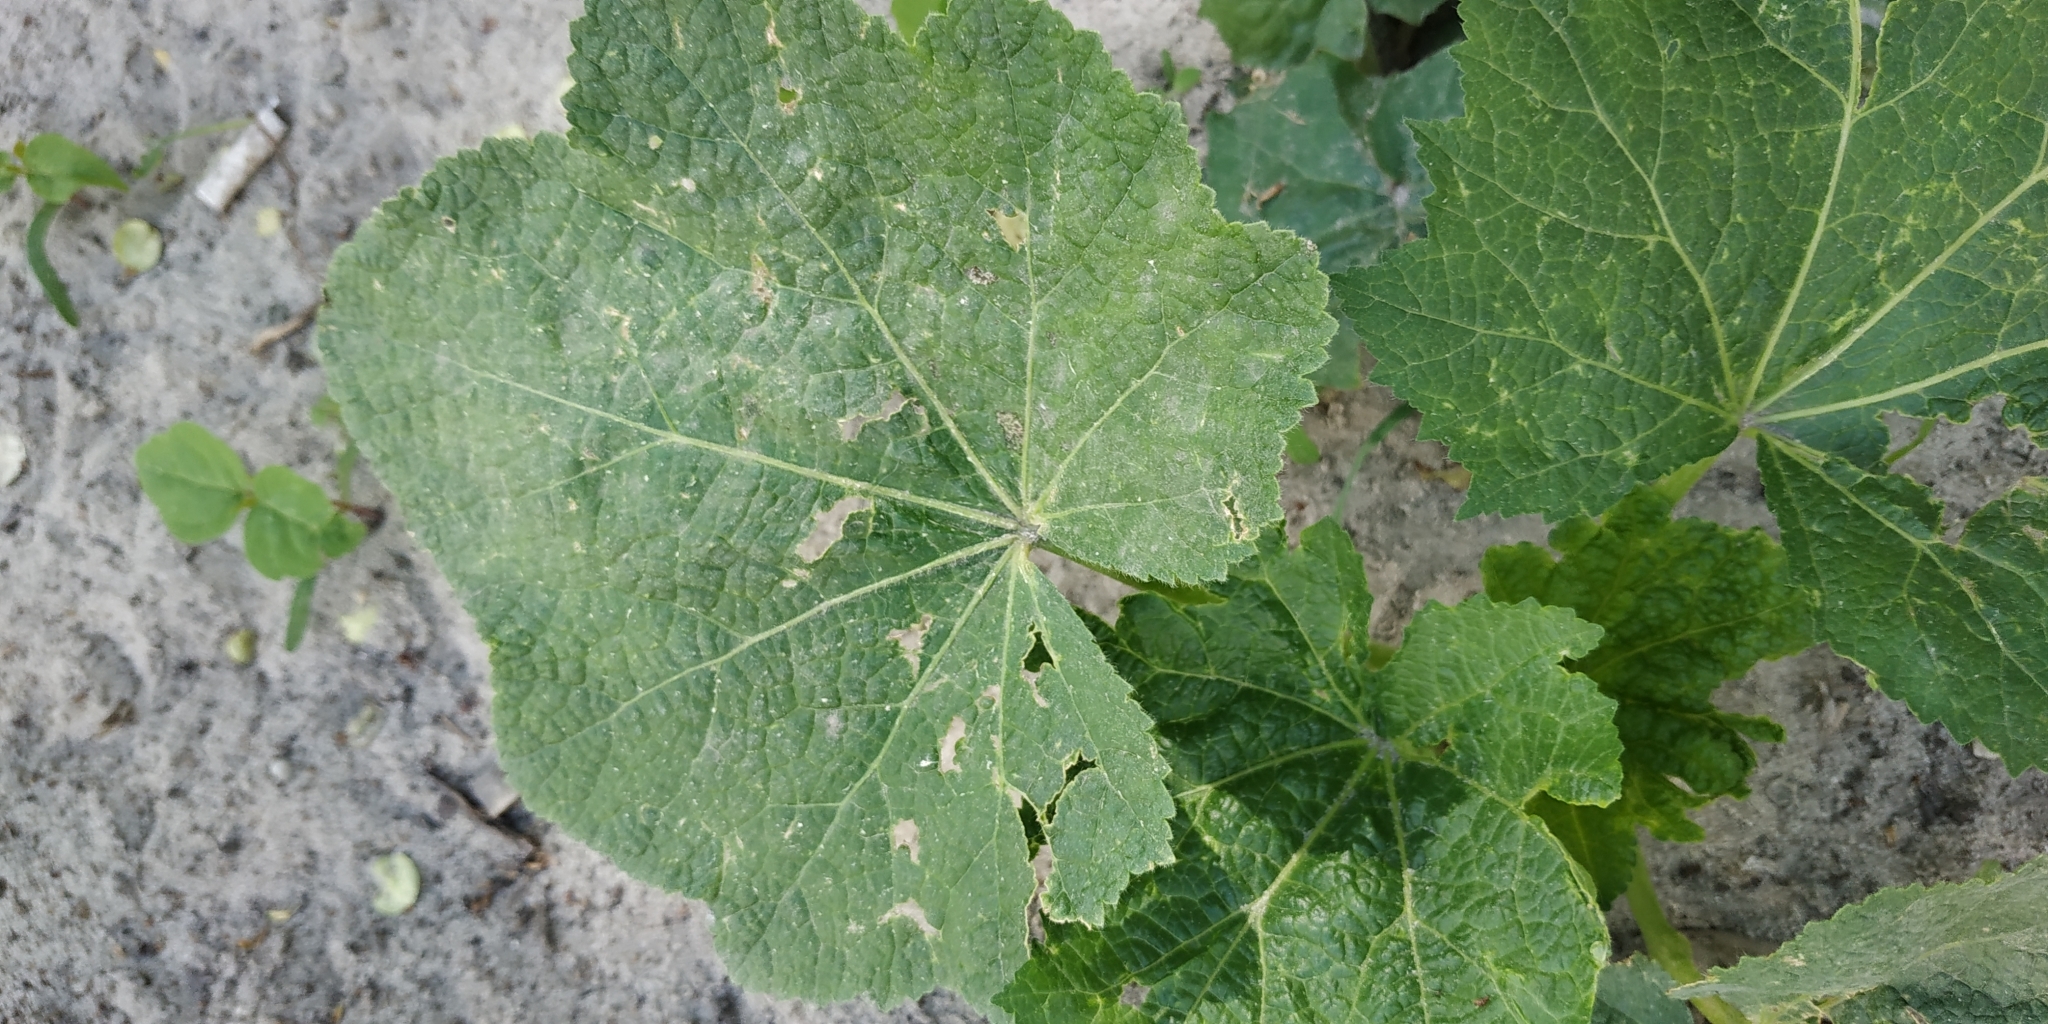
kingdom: Plantae
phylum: Tracheophyta
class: Magnoliopsida
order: Malvales
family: Malvaceae
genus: Alcea
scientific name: Alcea rosea
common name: Hollyhock
